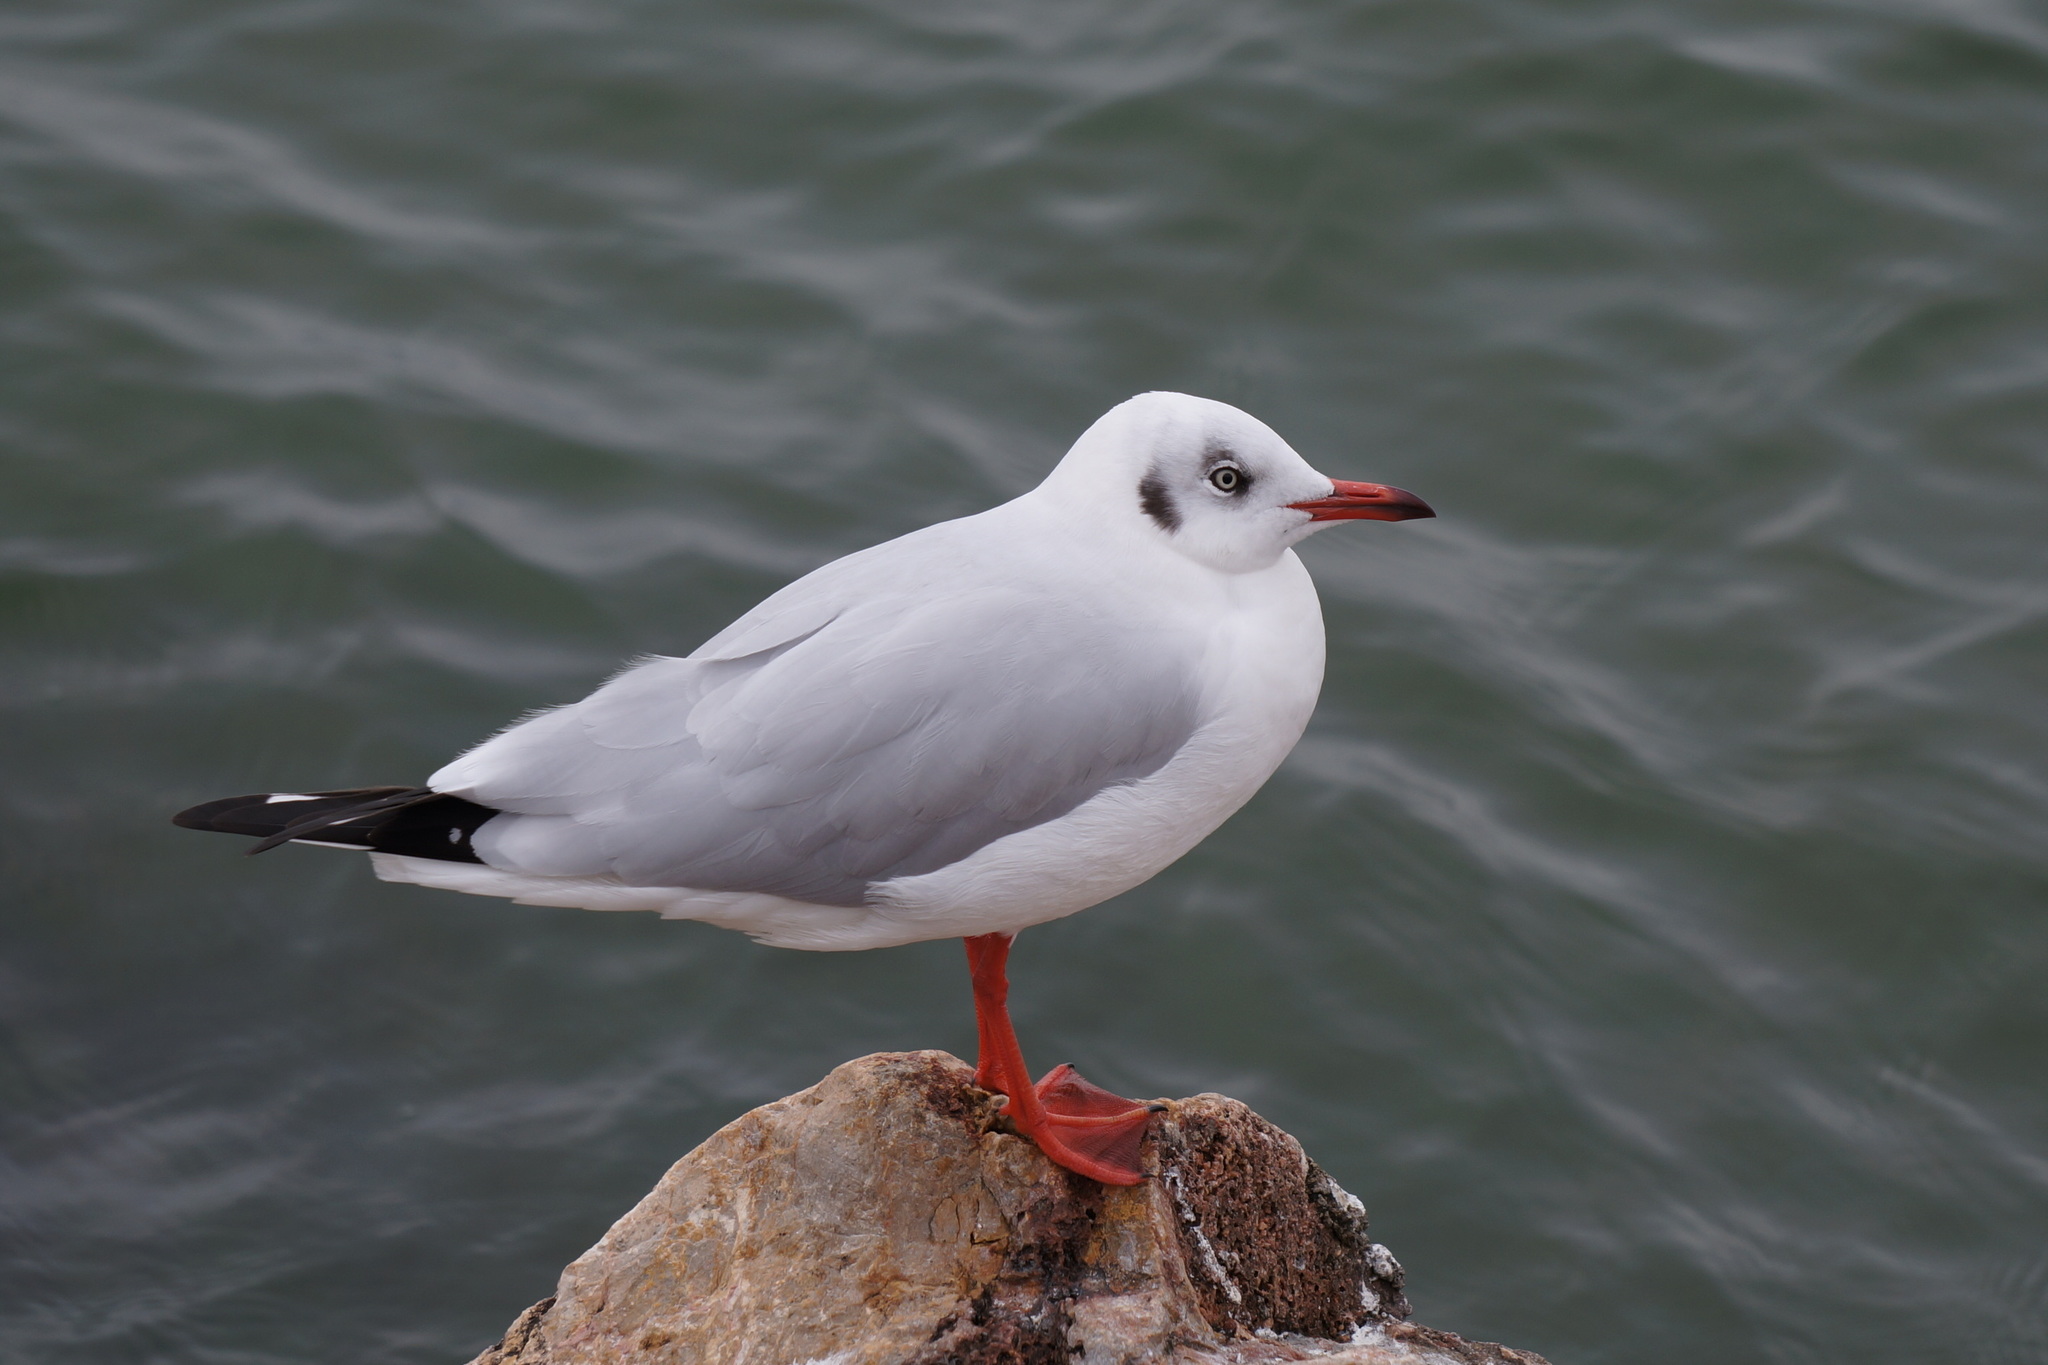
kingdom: Animalia
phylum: Chordata
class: Aves
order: Charadriiformes
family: Laridae
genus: Chroicocephalus
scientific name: Chroicocephalus brunnicephalus
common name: Brown-headed gull
